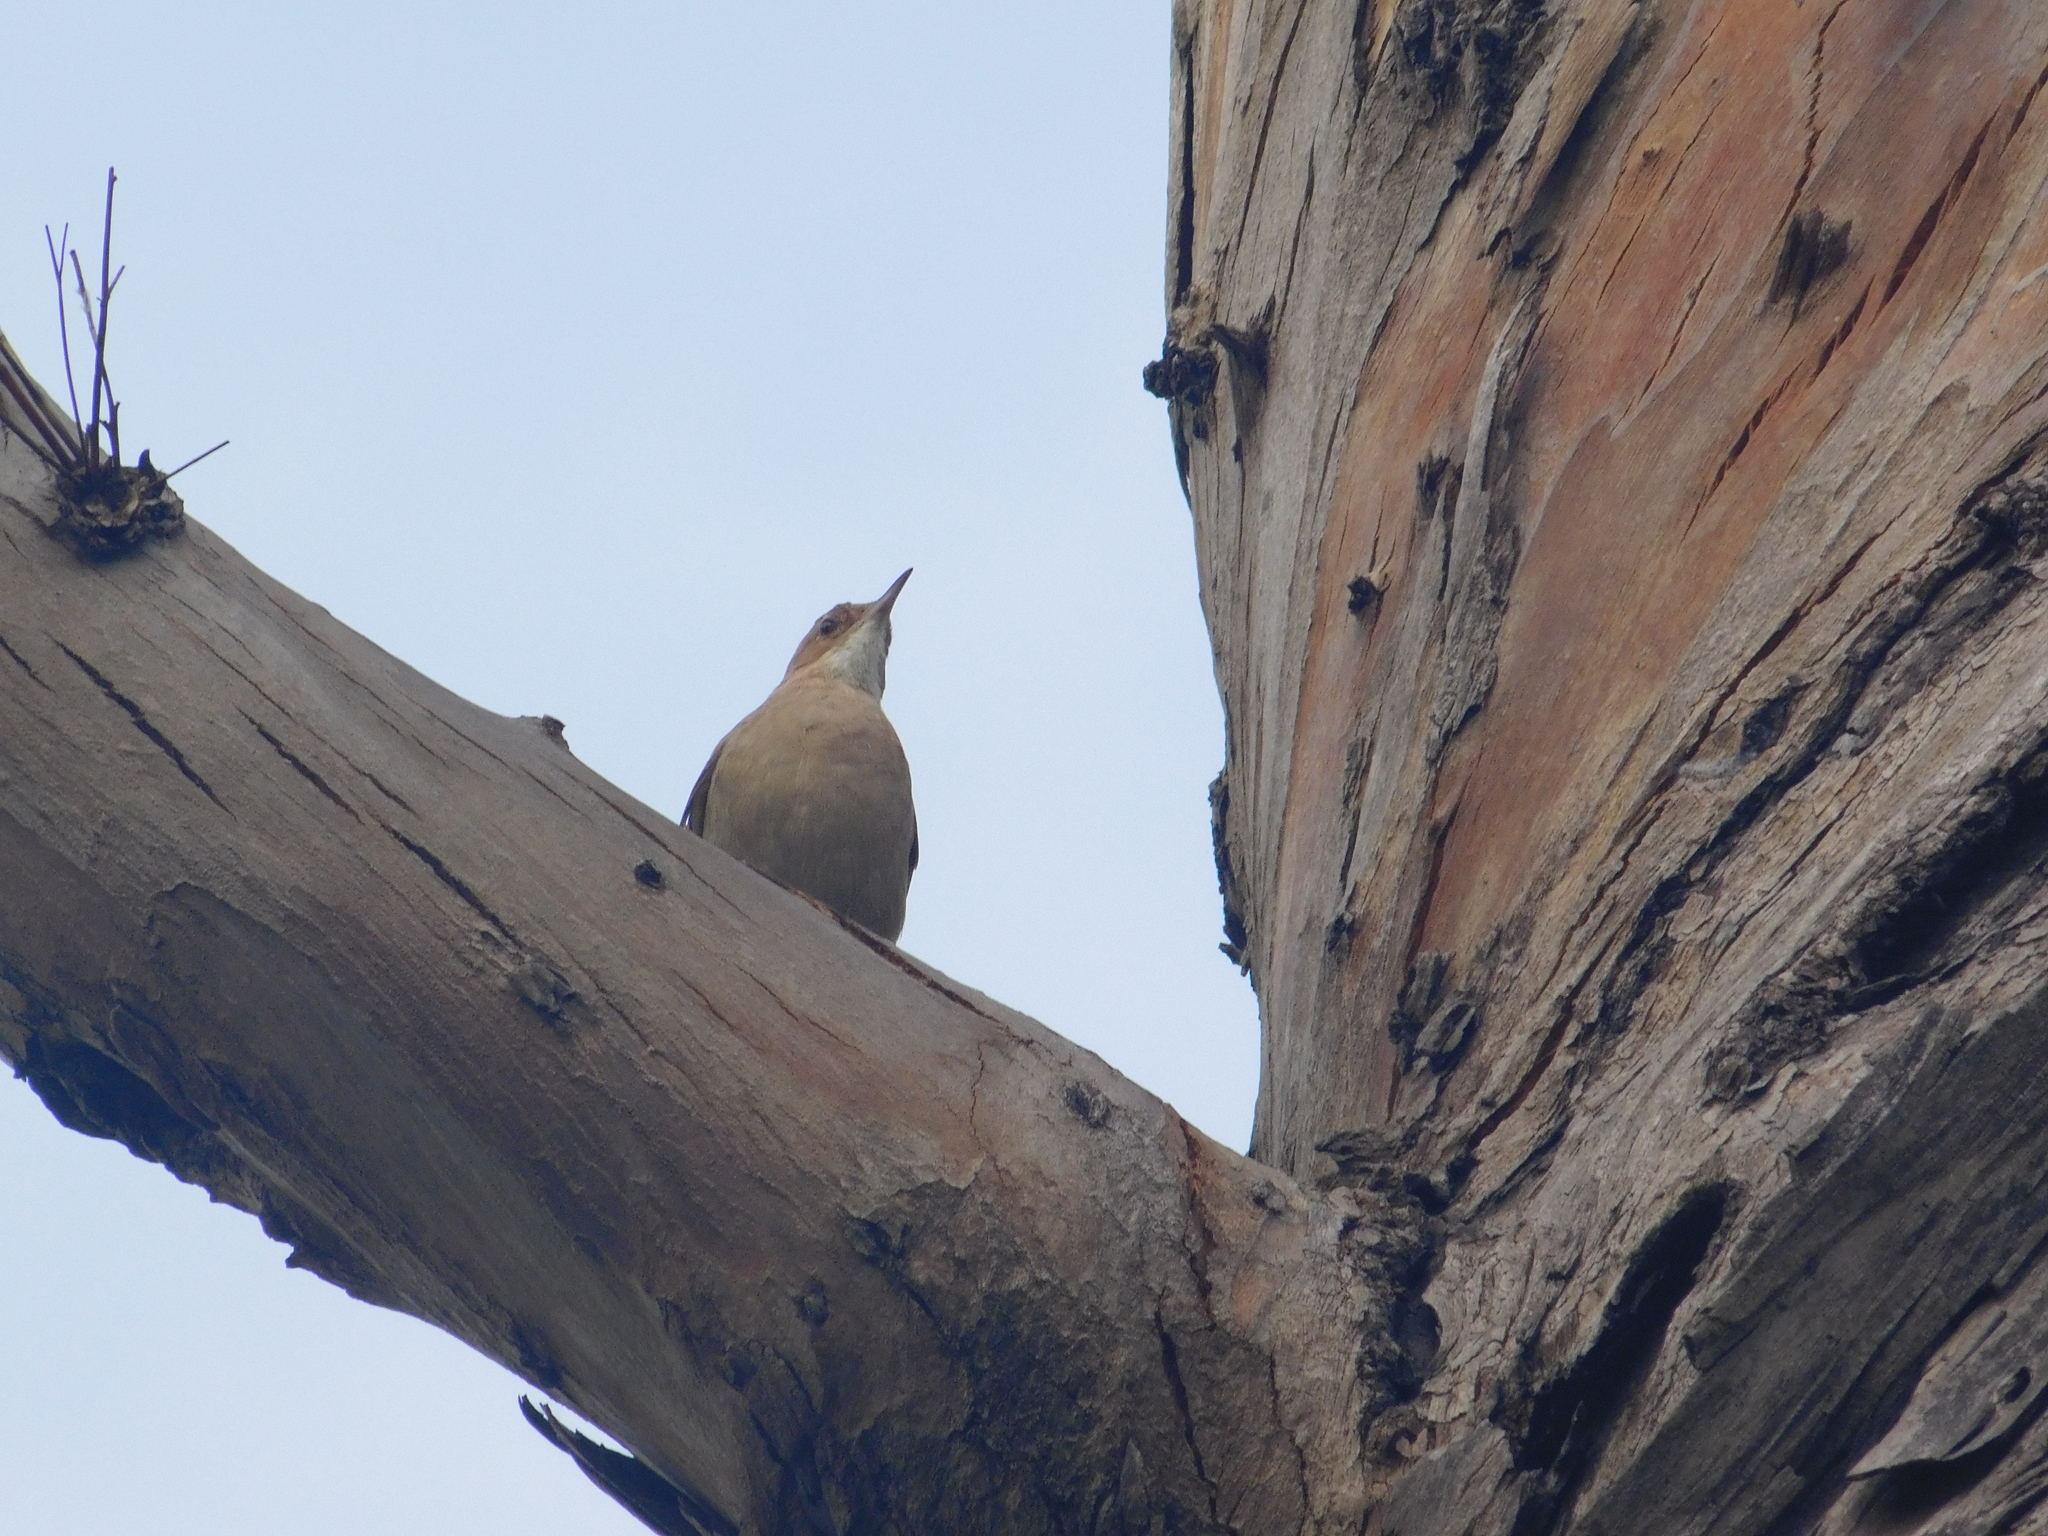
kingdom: Animalia
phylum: Chordata
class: Aves
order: Passeriformes
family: Furnariidae
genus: Furnarius
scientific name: Furnarius rufus
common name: Rufous hornero
